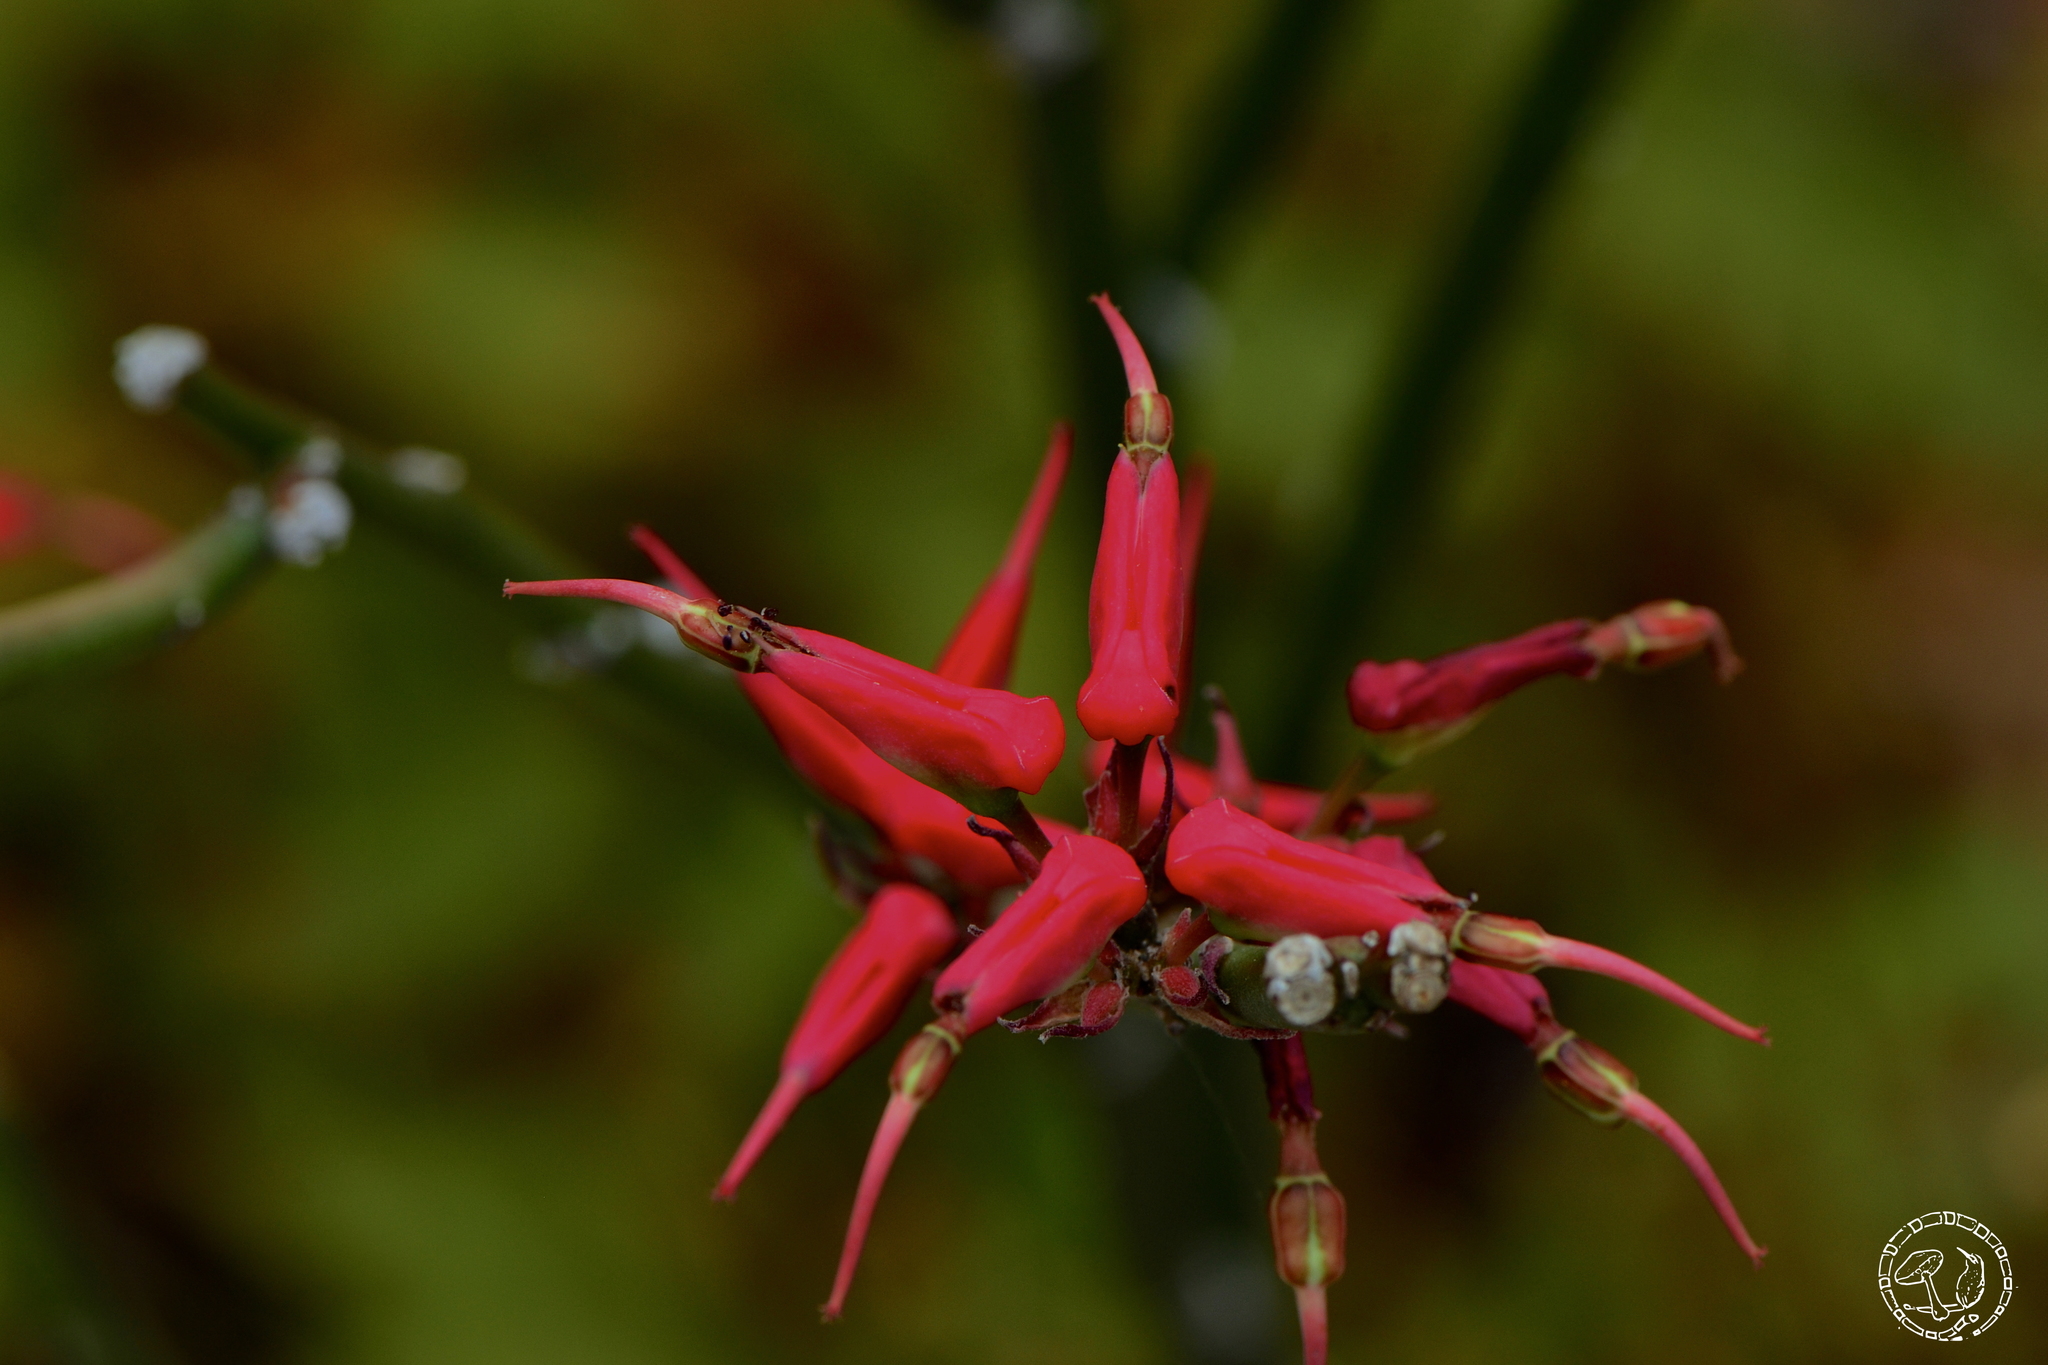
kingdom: Plantae
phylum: Tracheophyta
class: Magnoliopsida
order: Malpighiales
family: Euphorbiaceae
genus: Euphorbia
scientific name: Euphorbia tithymaloides
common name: Slipperplant
